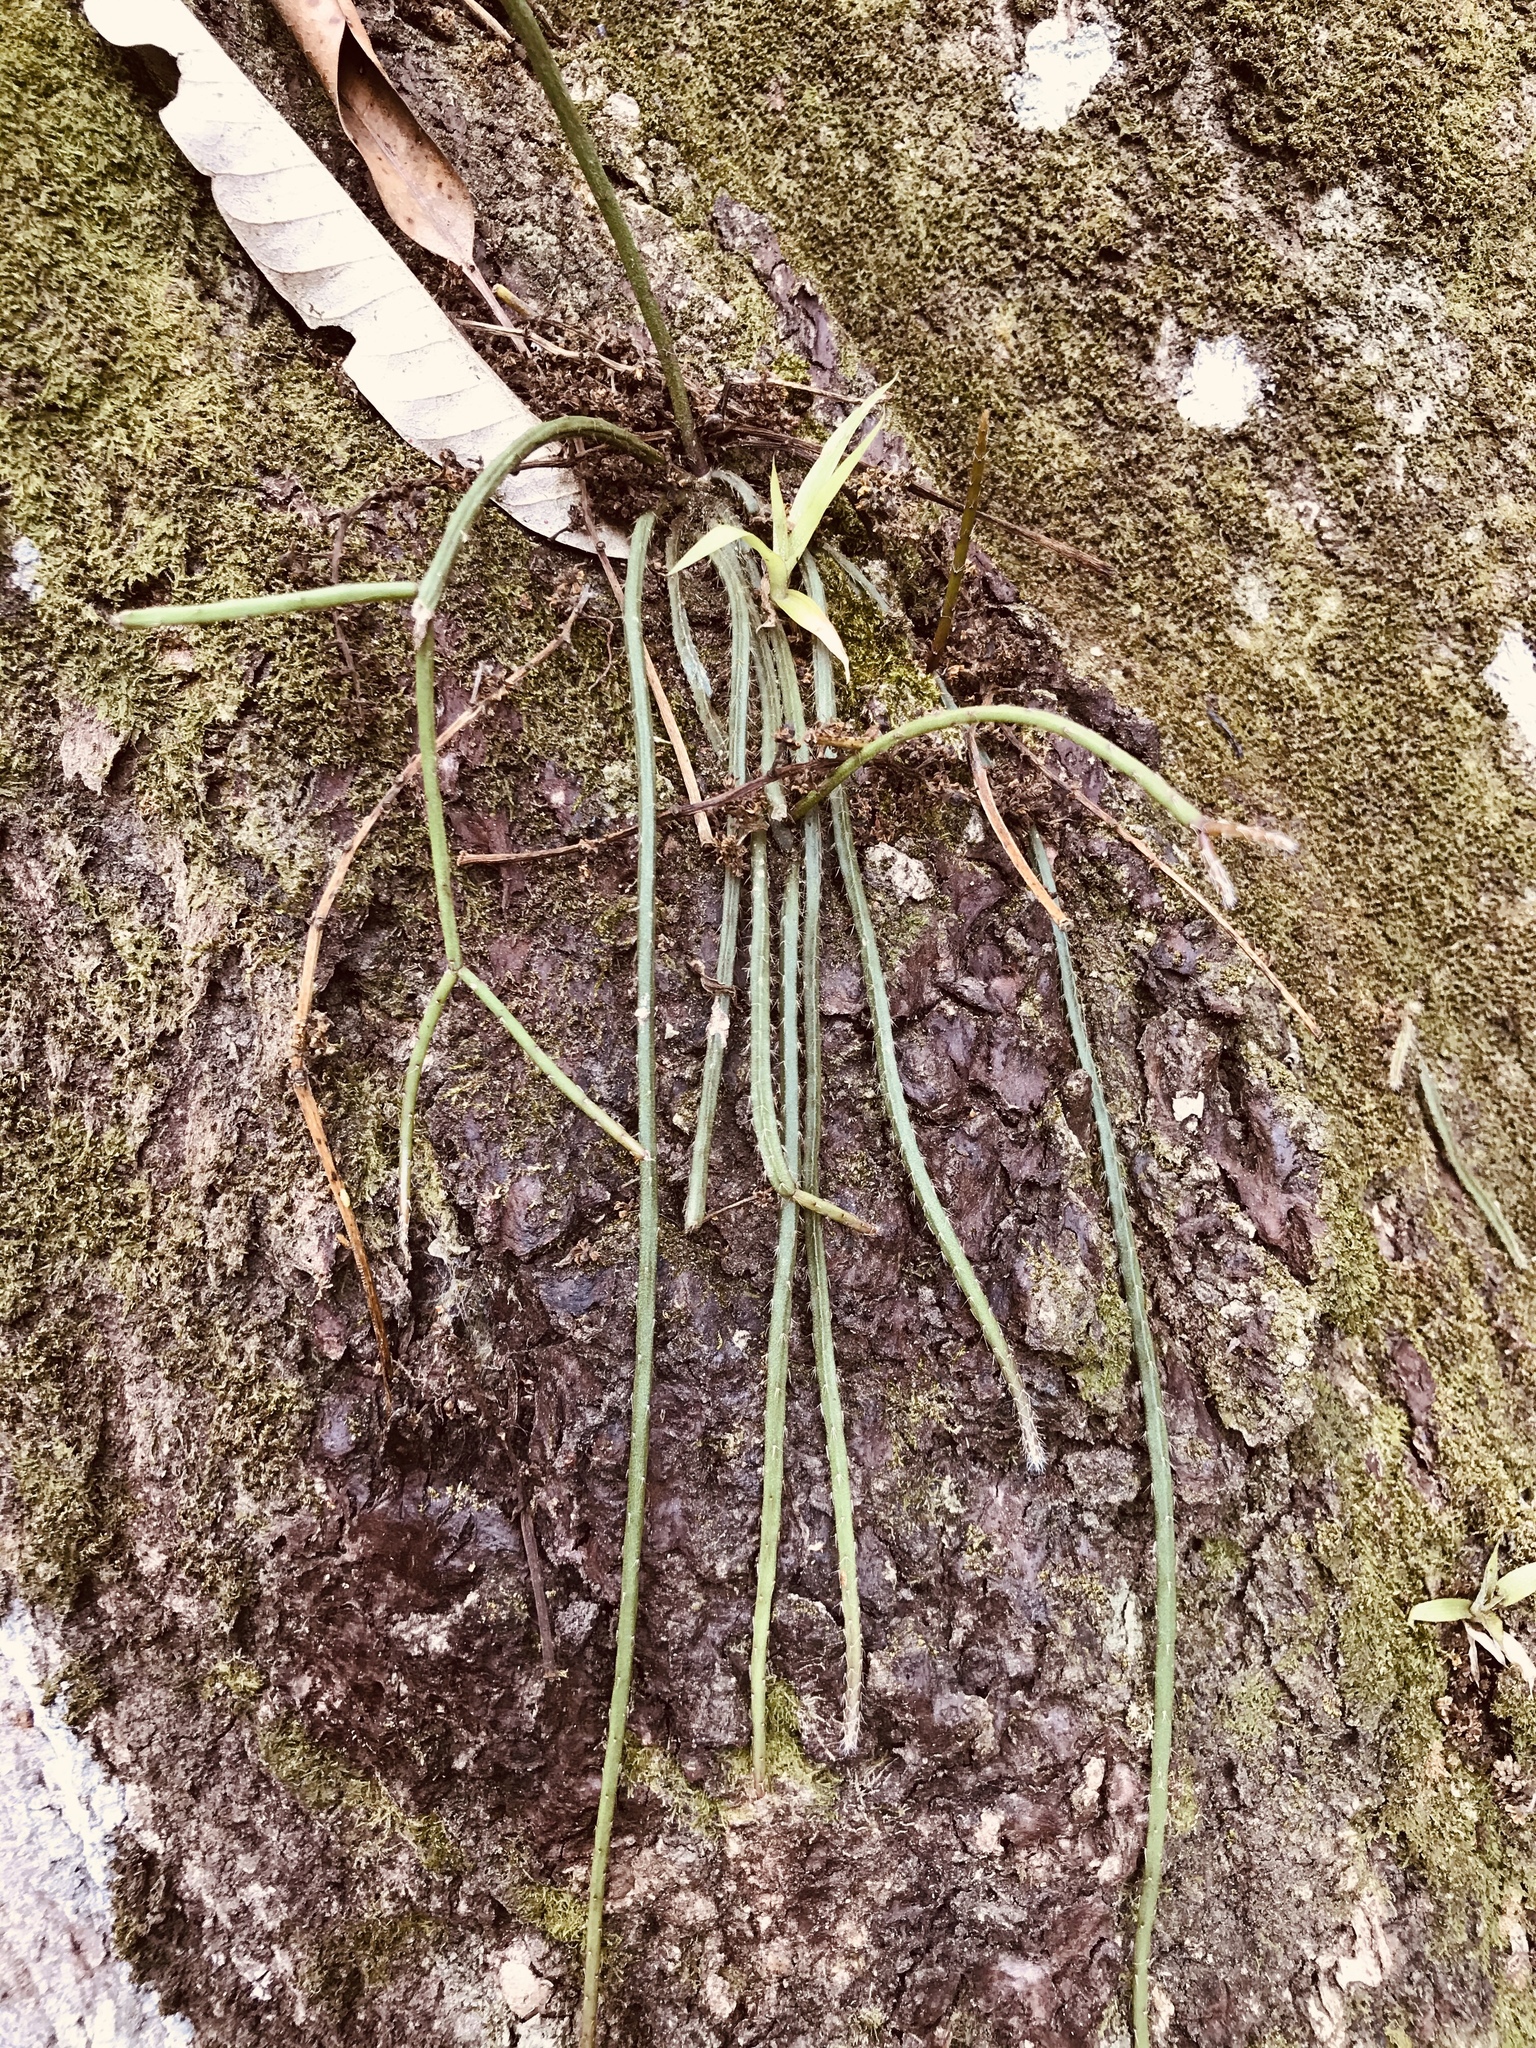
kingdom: Plantae
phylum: Tracheophyta
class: Magnoliopsida
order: Caryophyllales
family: Cactaceae
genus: Rhipsalis
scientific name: Rhipsalis baccifera
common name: Mistletoe cactus
